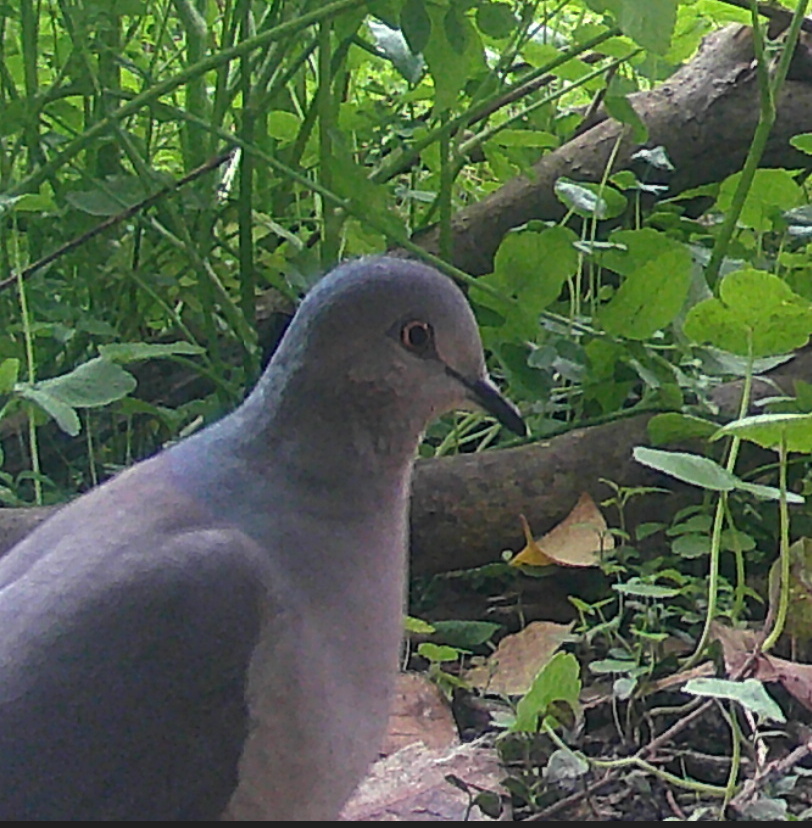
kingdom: Animalia
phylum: Chordata
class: Aves
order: Columbiformes
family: Columbidae
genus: Leptotila
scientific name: Leptotila verreauxi
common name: White-tipped dove
